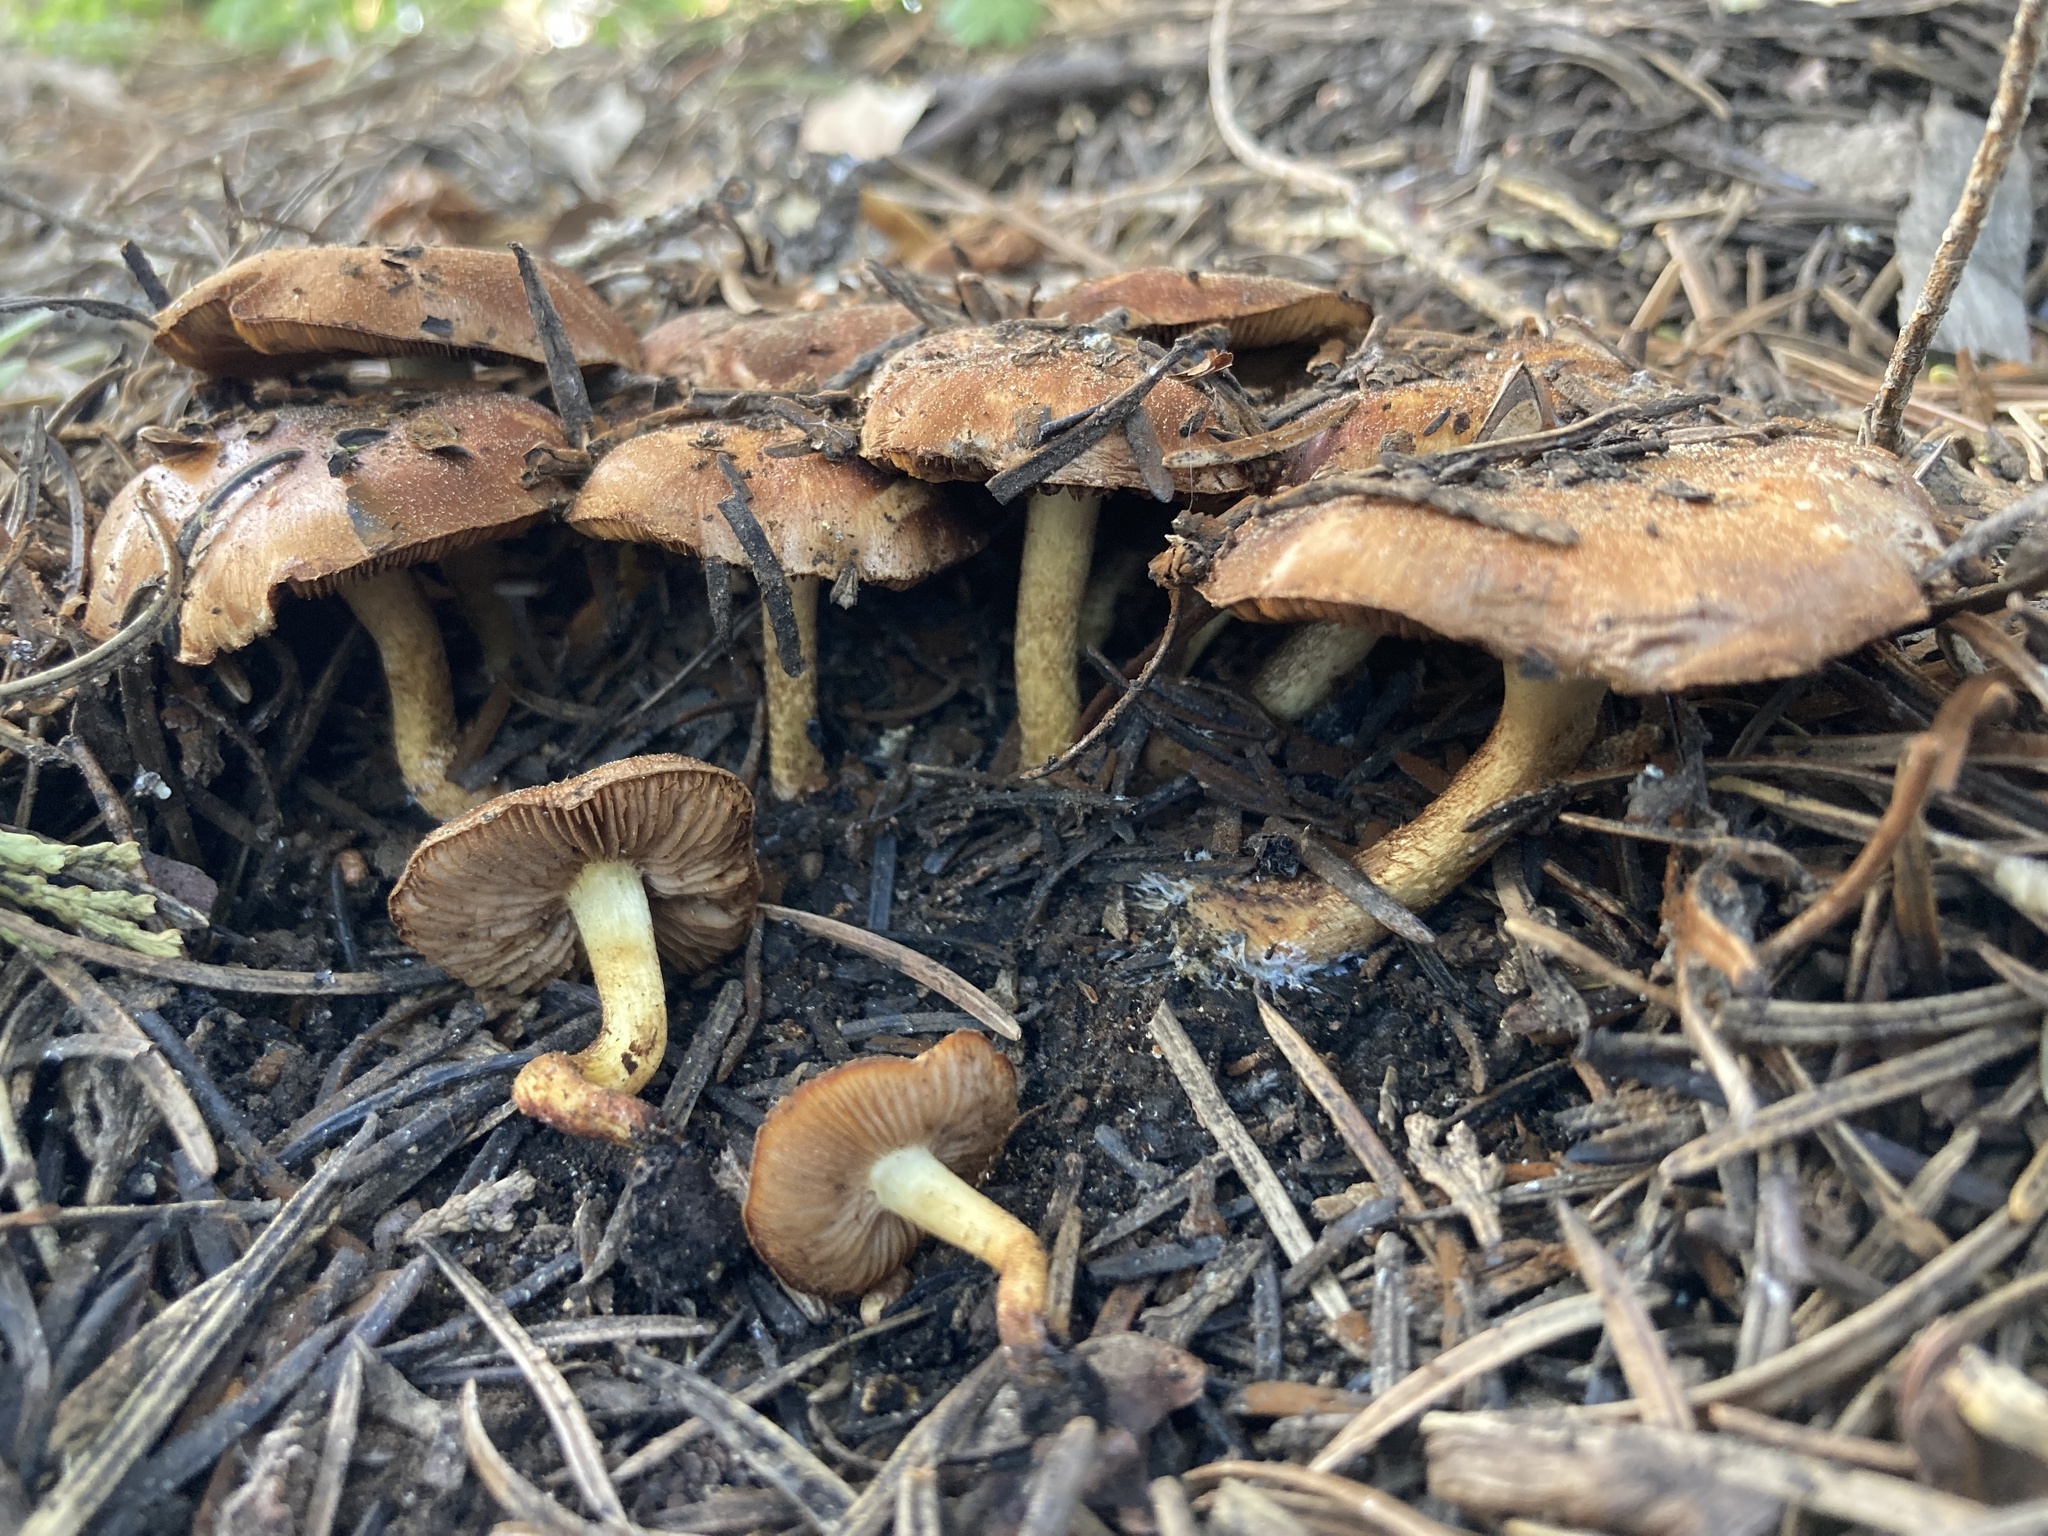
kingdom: Fungi
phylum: Basidiomycota
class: Agaricomycetes
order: Agaricales
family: Strophariaceae
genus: Pholiota
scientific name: Pholiota carbonaria
